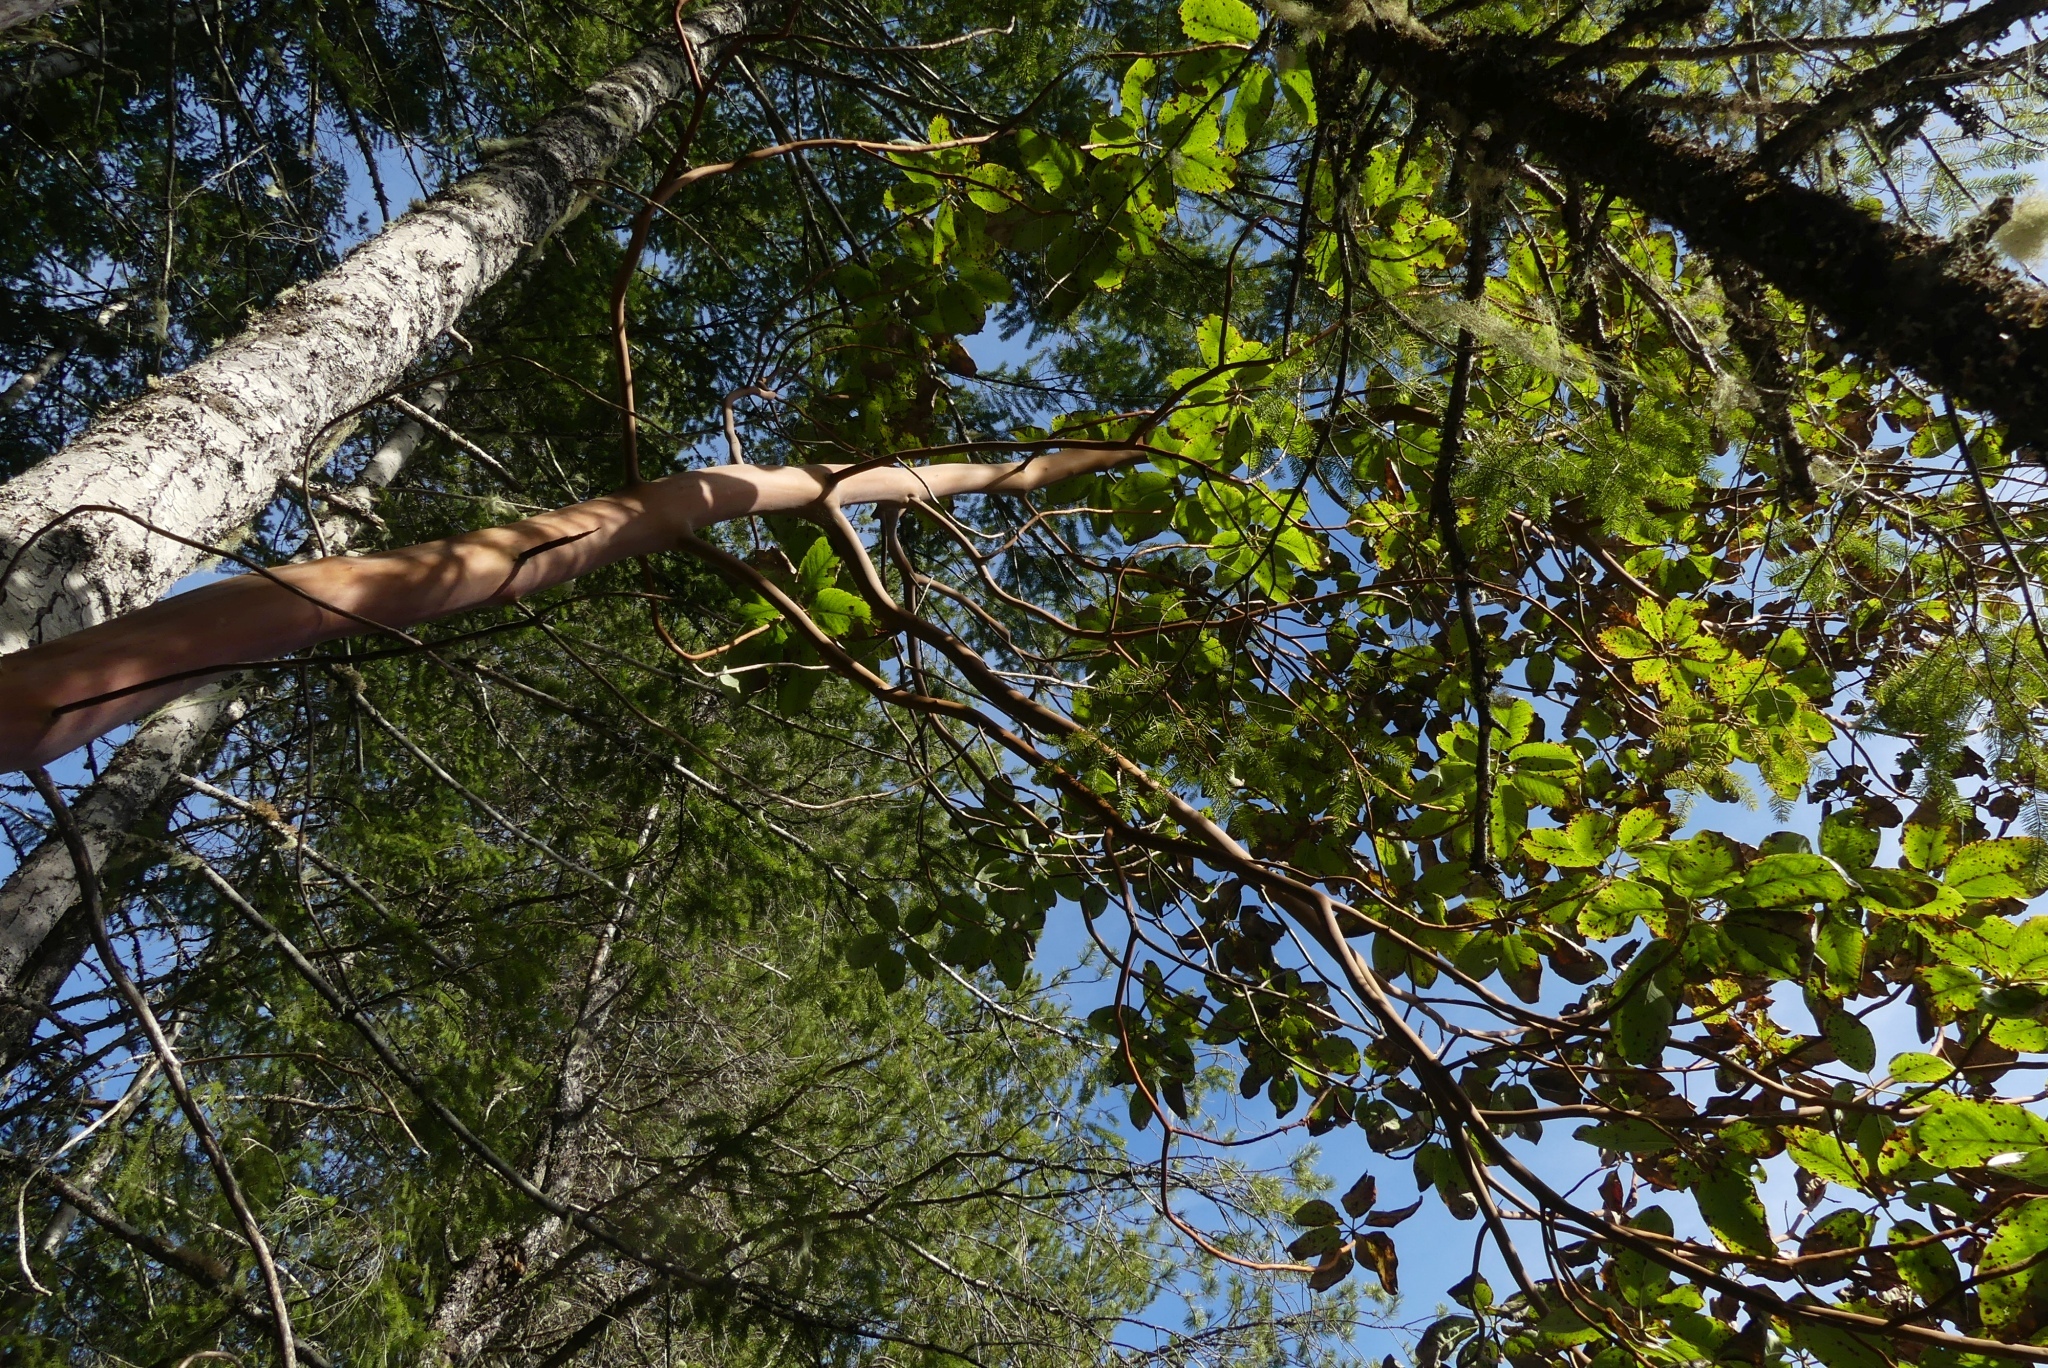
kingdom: Plantae
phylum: Tracheophyta
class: Magnoliopsida
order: Ericales
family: Ericaceae
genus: Arbutus
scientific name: Arbutus menziesii
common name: Pacific madrone
